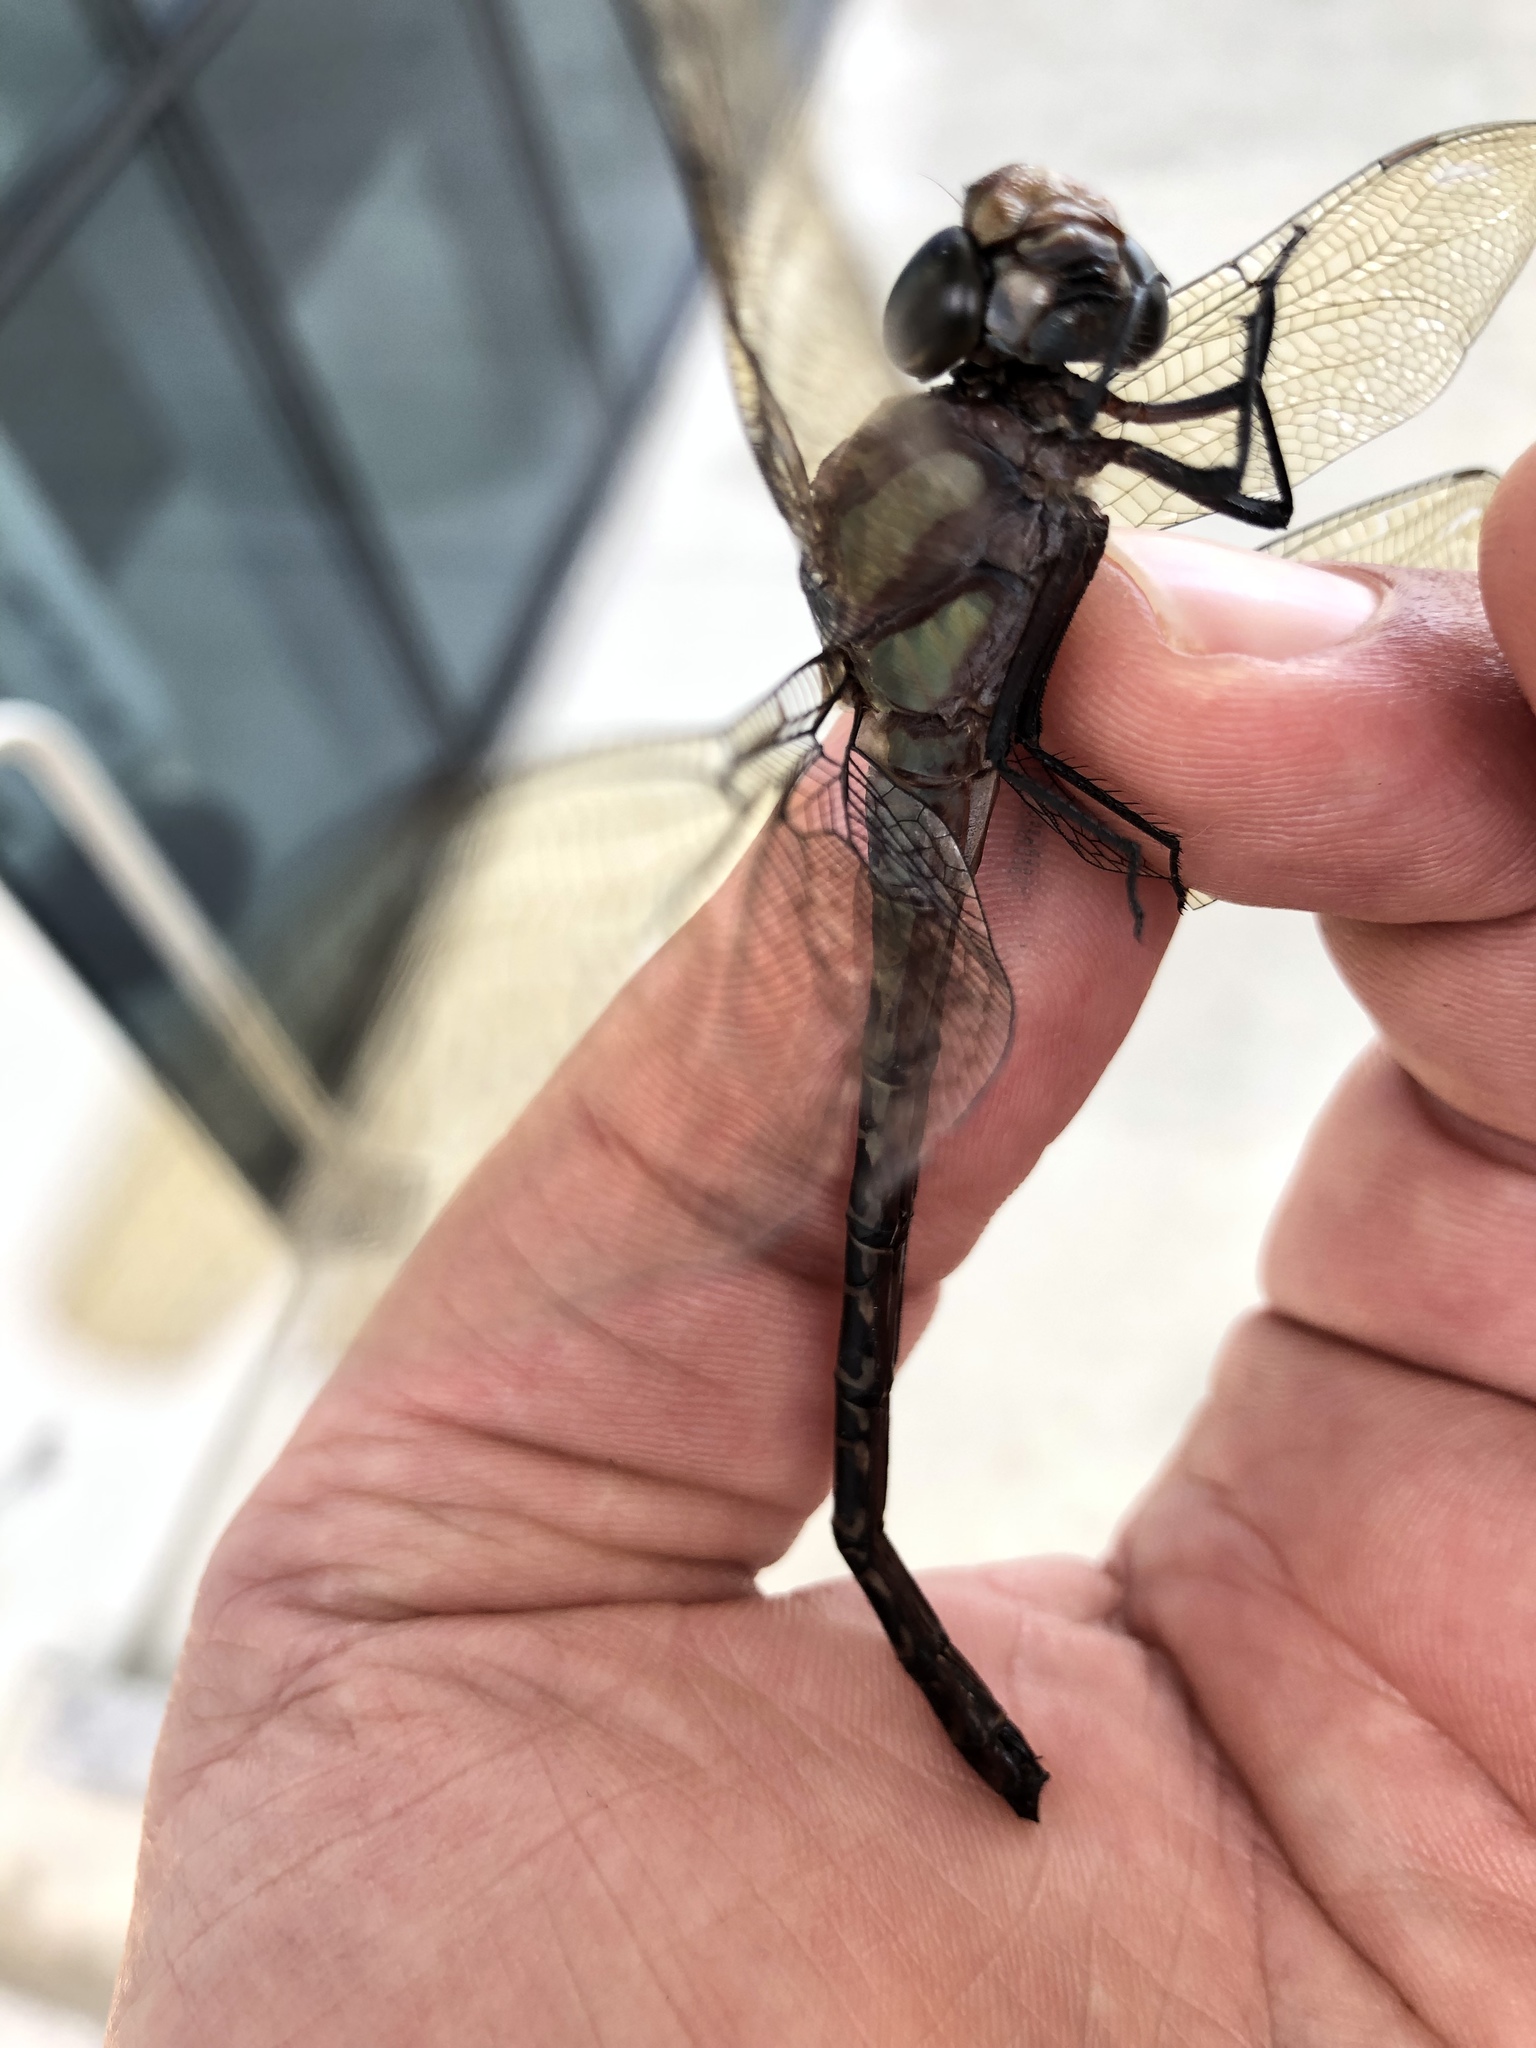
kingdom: Animalia
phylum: Arthropoda
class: Insecta
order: Odonata
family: Aeshnidae
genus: Coryphaeschna
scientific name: Coryphaeschna ingens
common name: Regal darner
